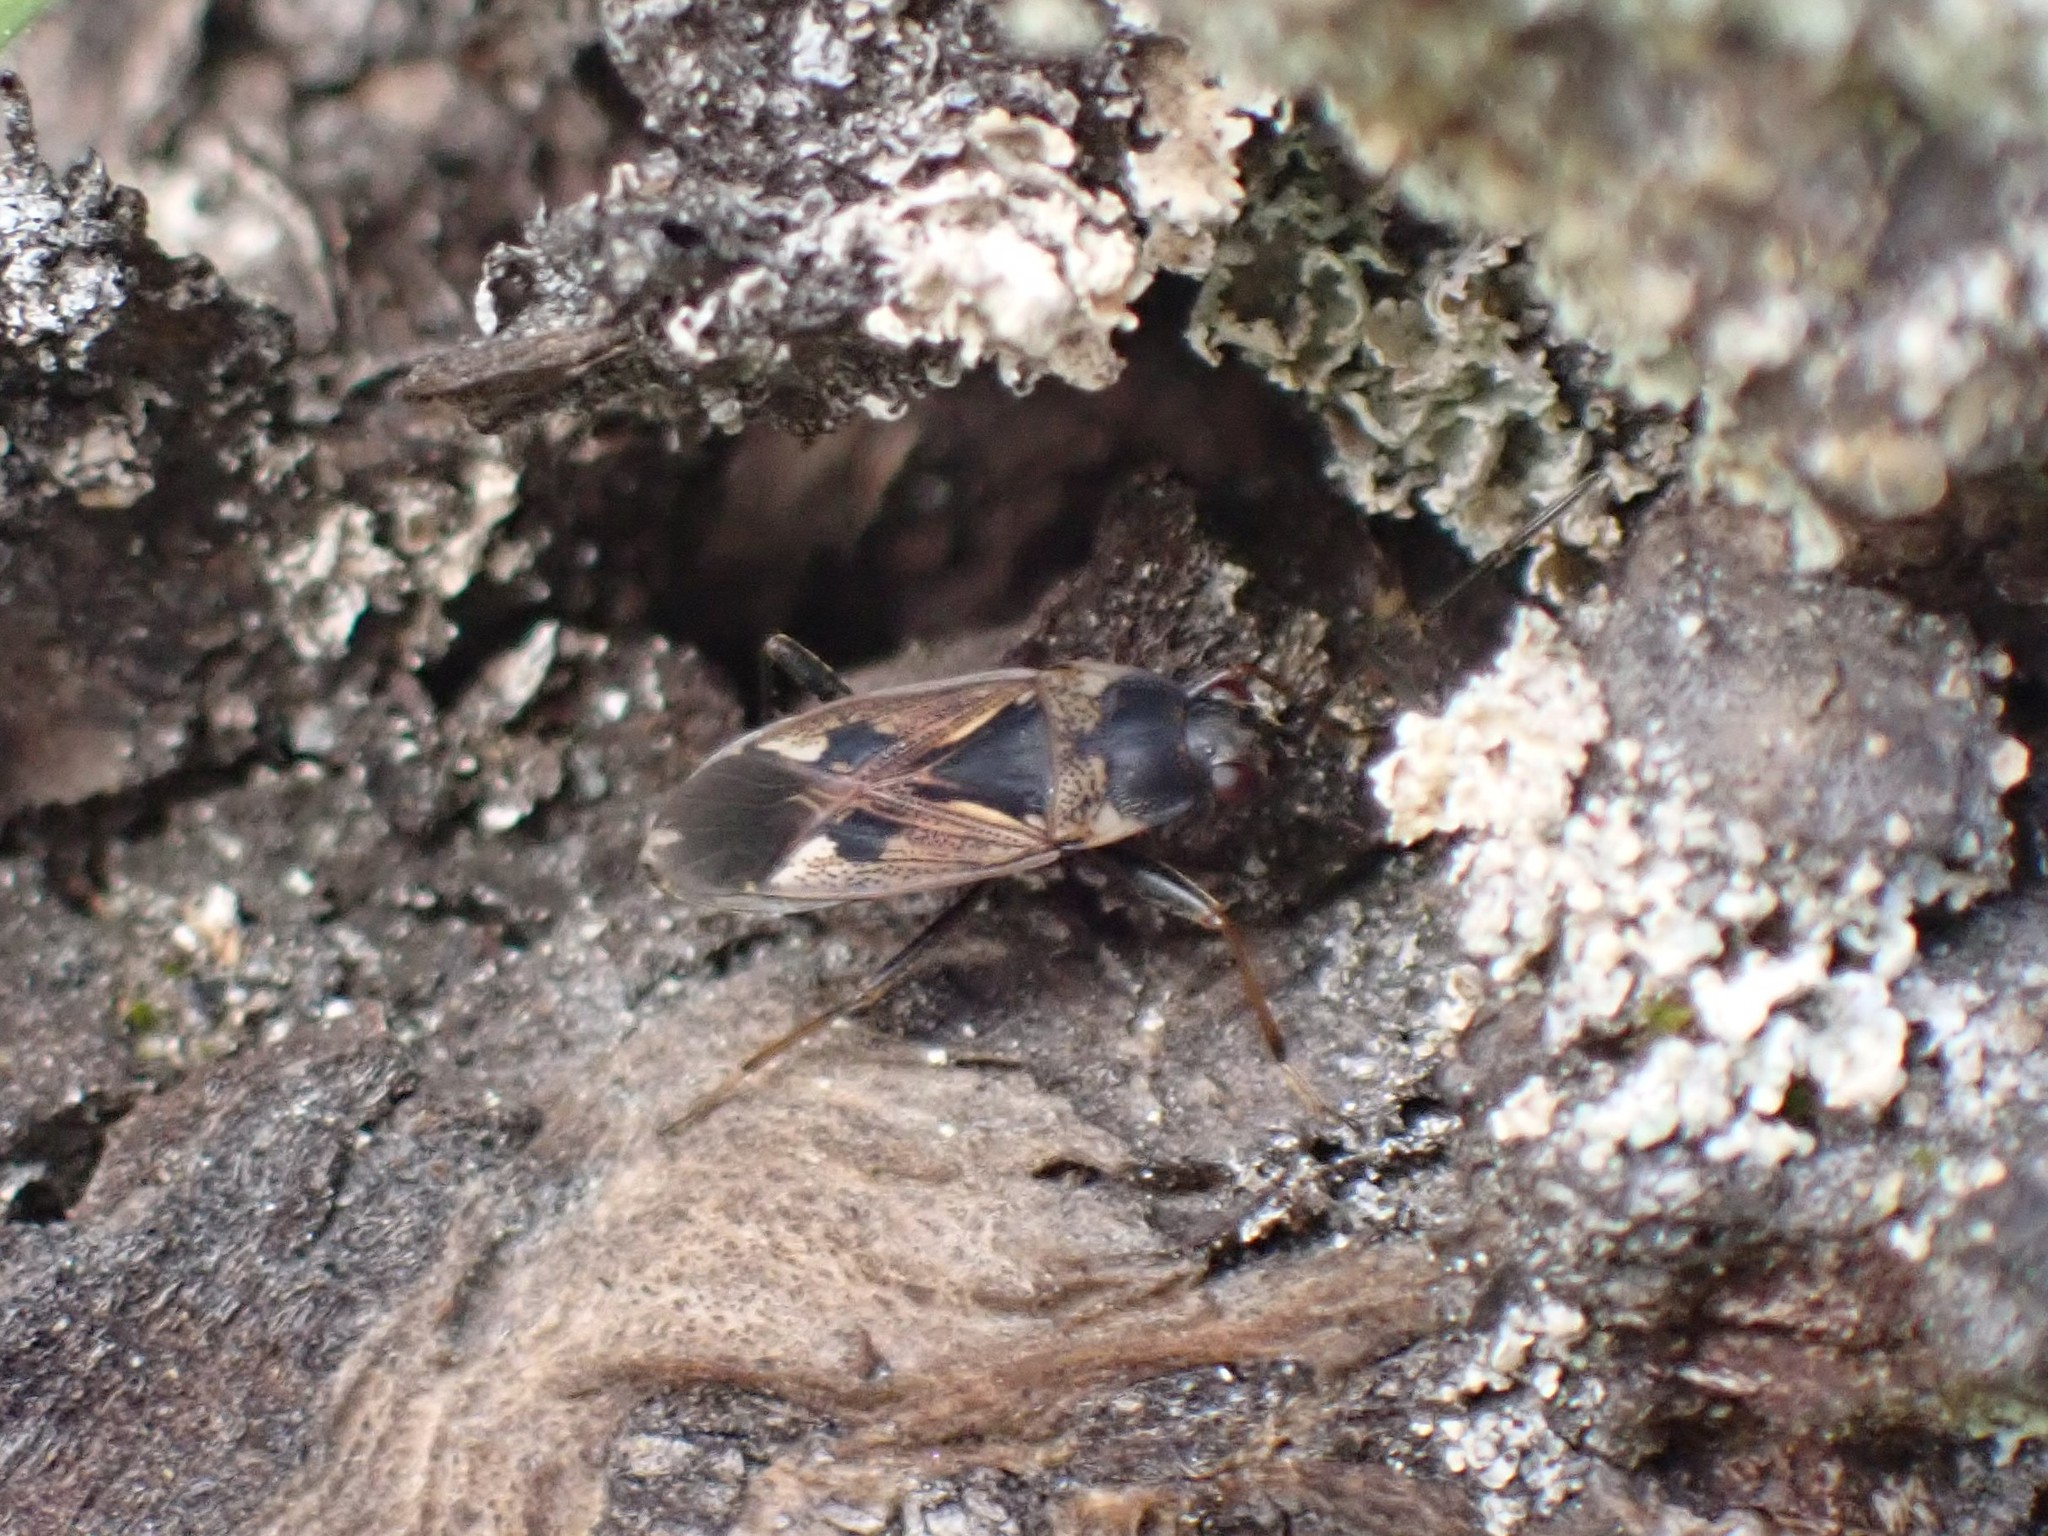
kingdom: Animalia
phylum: Arthropoda
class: Insecta
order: Hemiptera
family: Rhyparochromidae
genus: Rhyparochromus
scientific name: Rhyparochromus vulgaris
